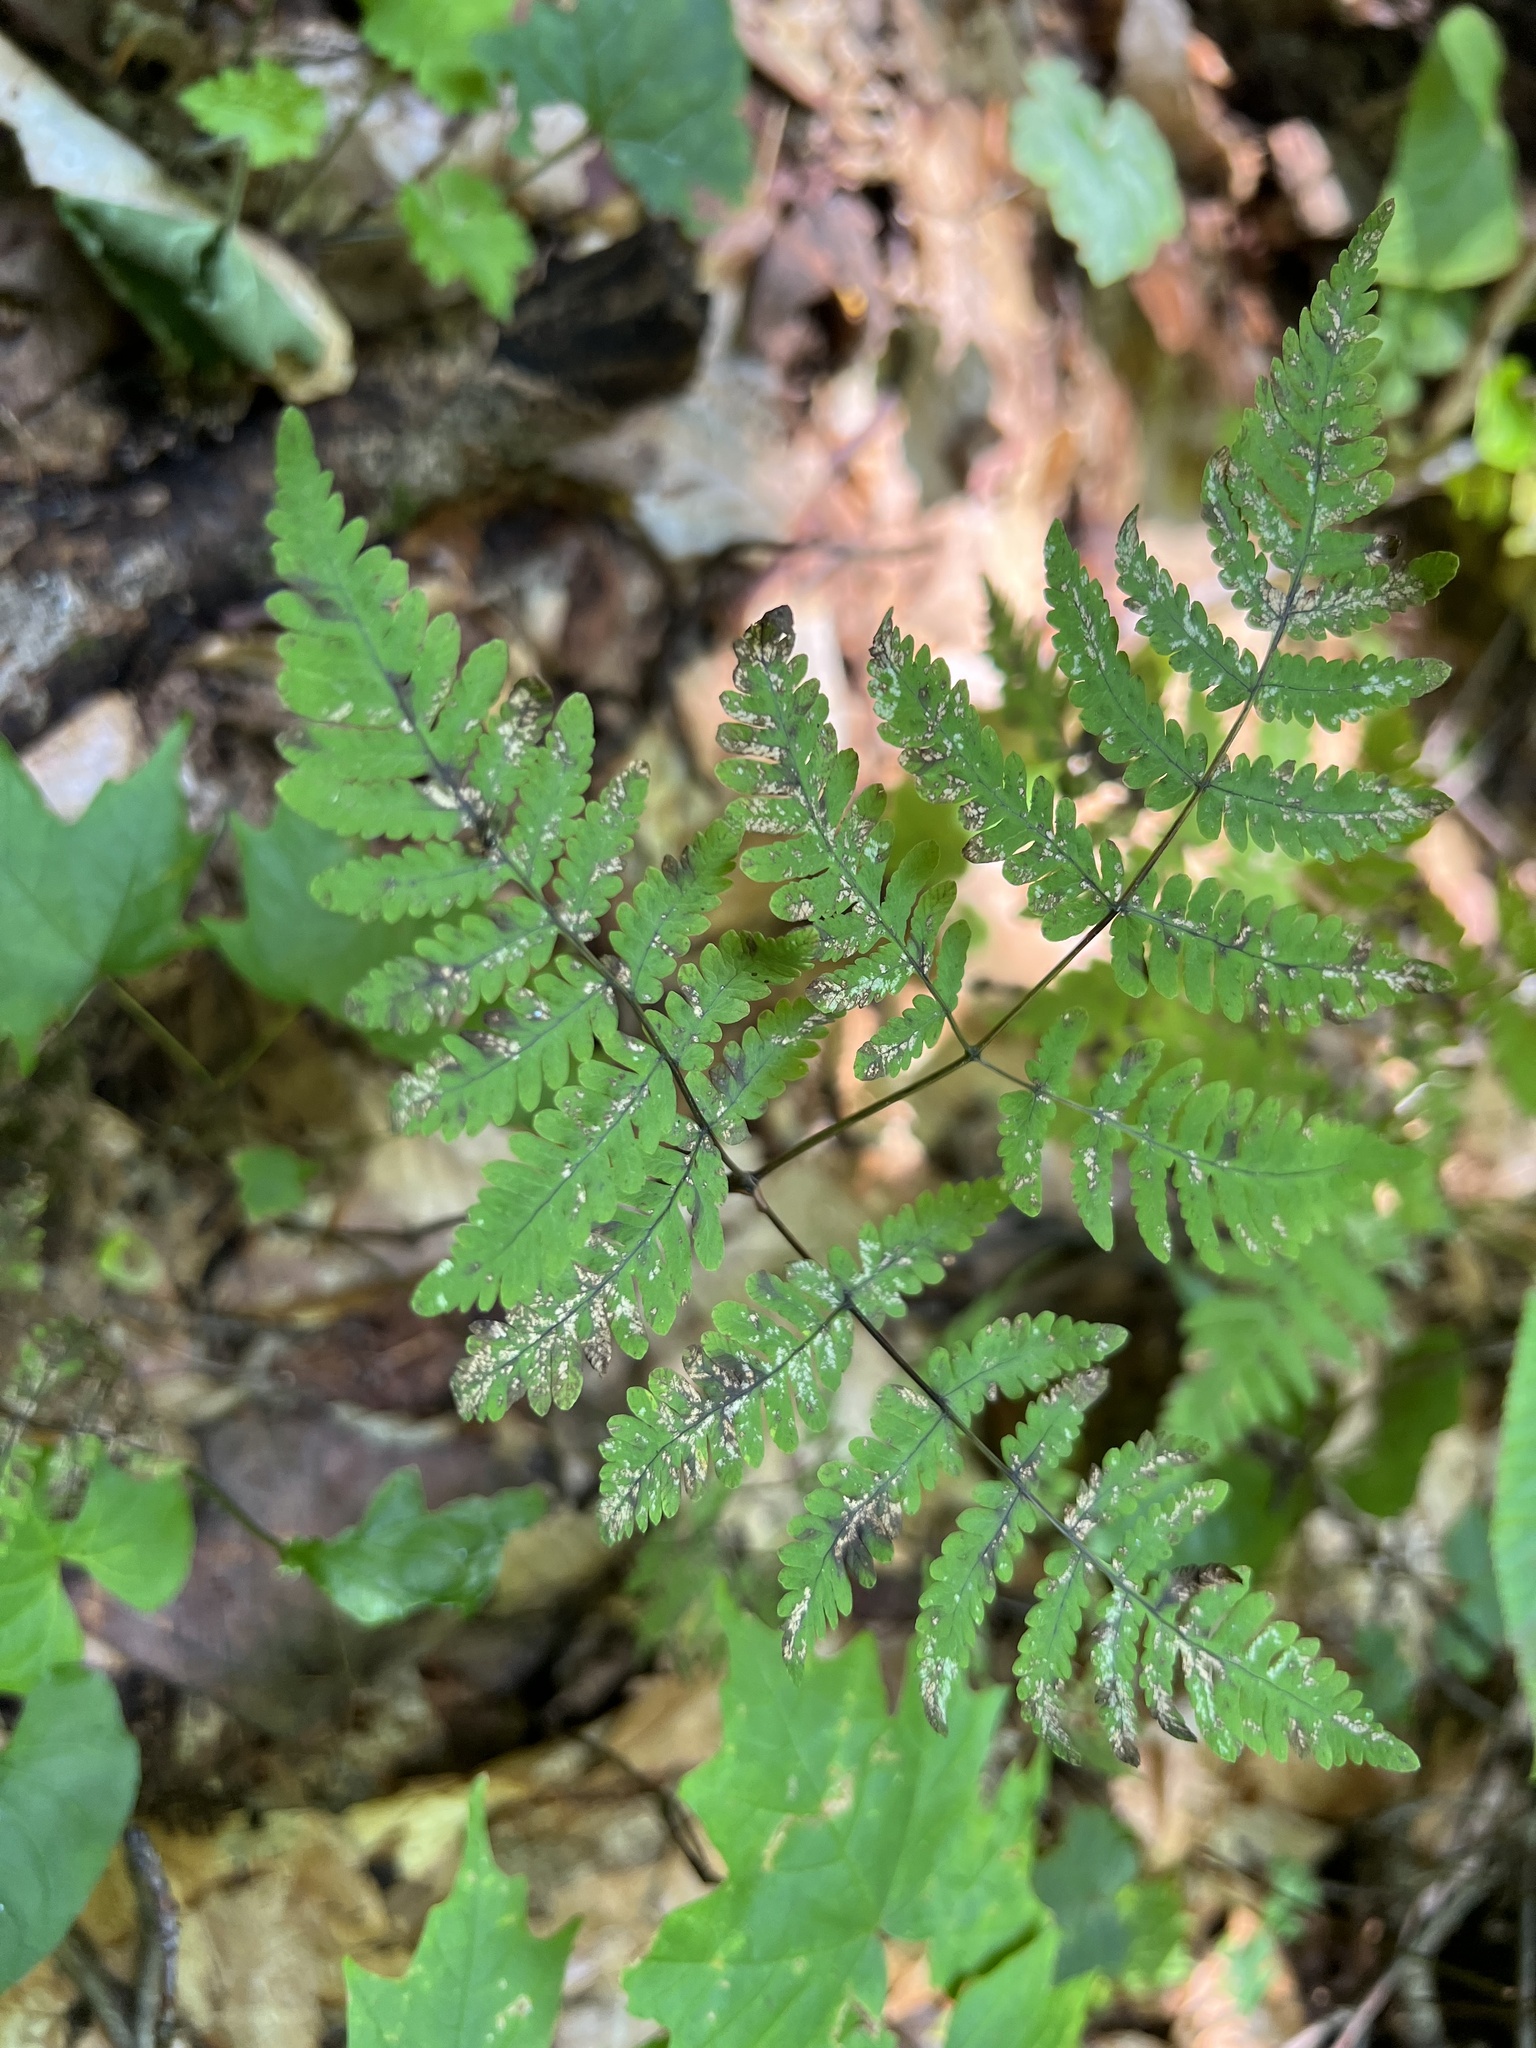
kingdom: Plantae
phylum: Tracheophyta
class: Polypodiopsida
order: Polypodiales
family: Cystopteridaceae
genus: Gymnocarpium
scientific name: Gymnocarpium dryopteris
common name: Oak fern
